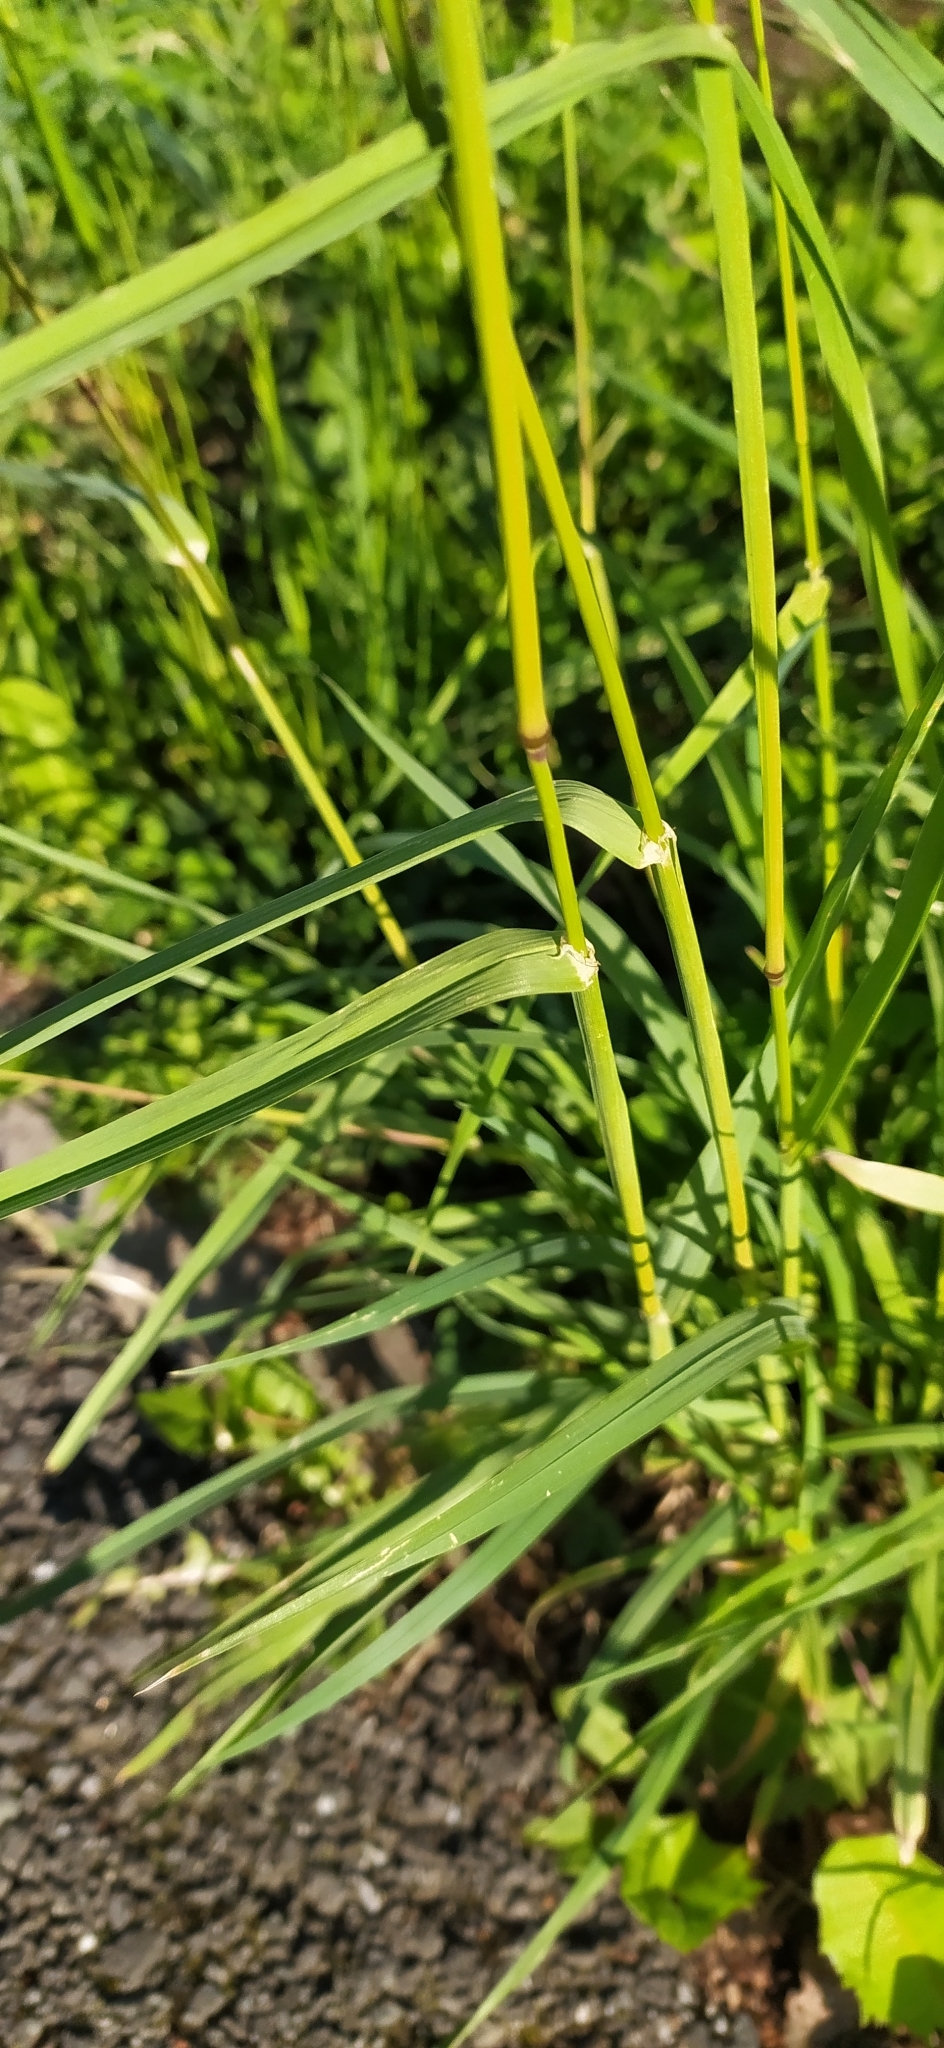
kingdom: Plantae
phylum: Tracheophyta
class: Liliopsida
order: Poales
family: Poaceae
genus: Dactylis
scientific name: Dactylis glomerata
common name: Orchardgrass
